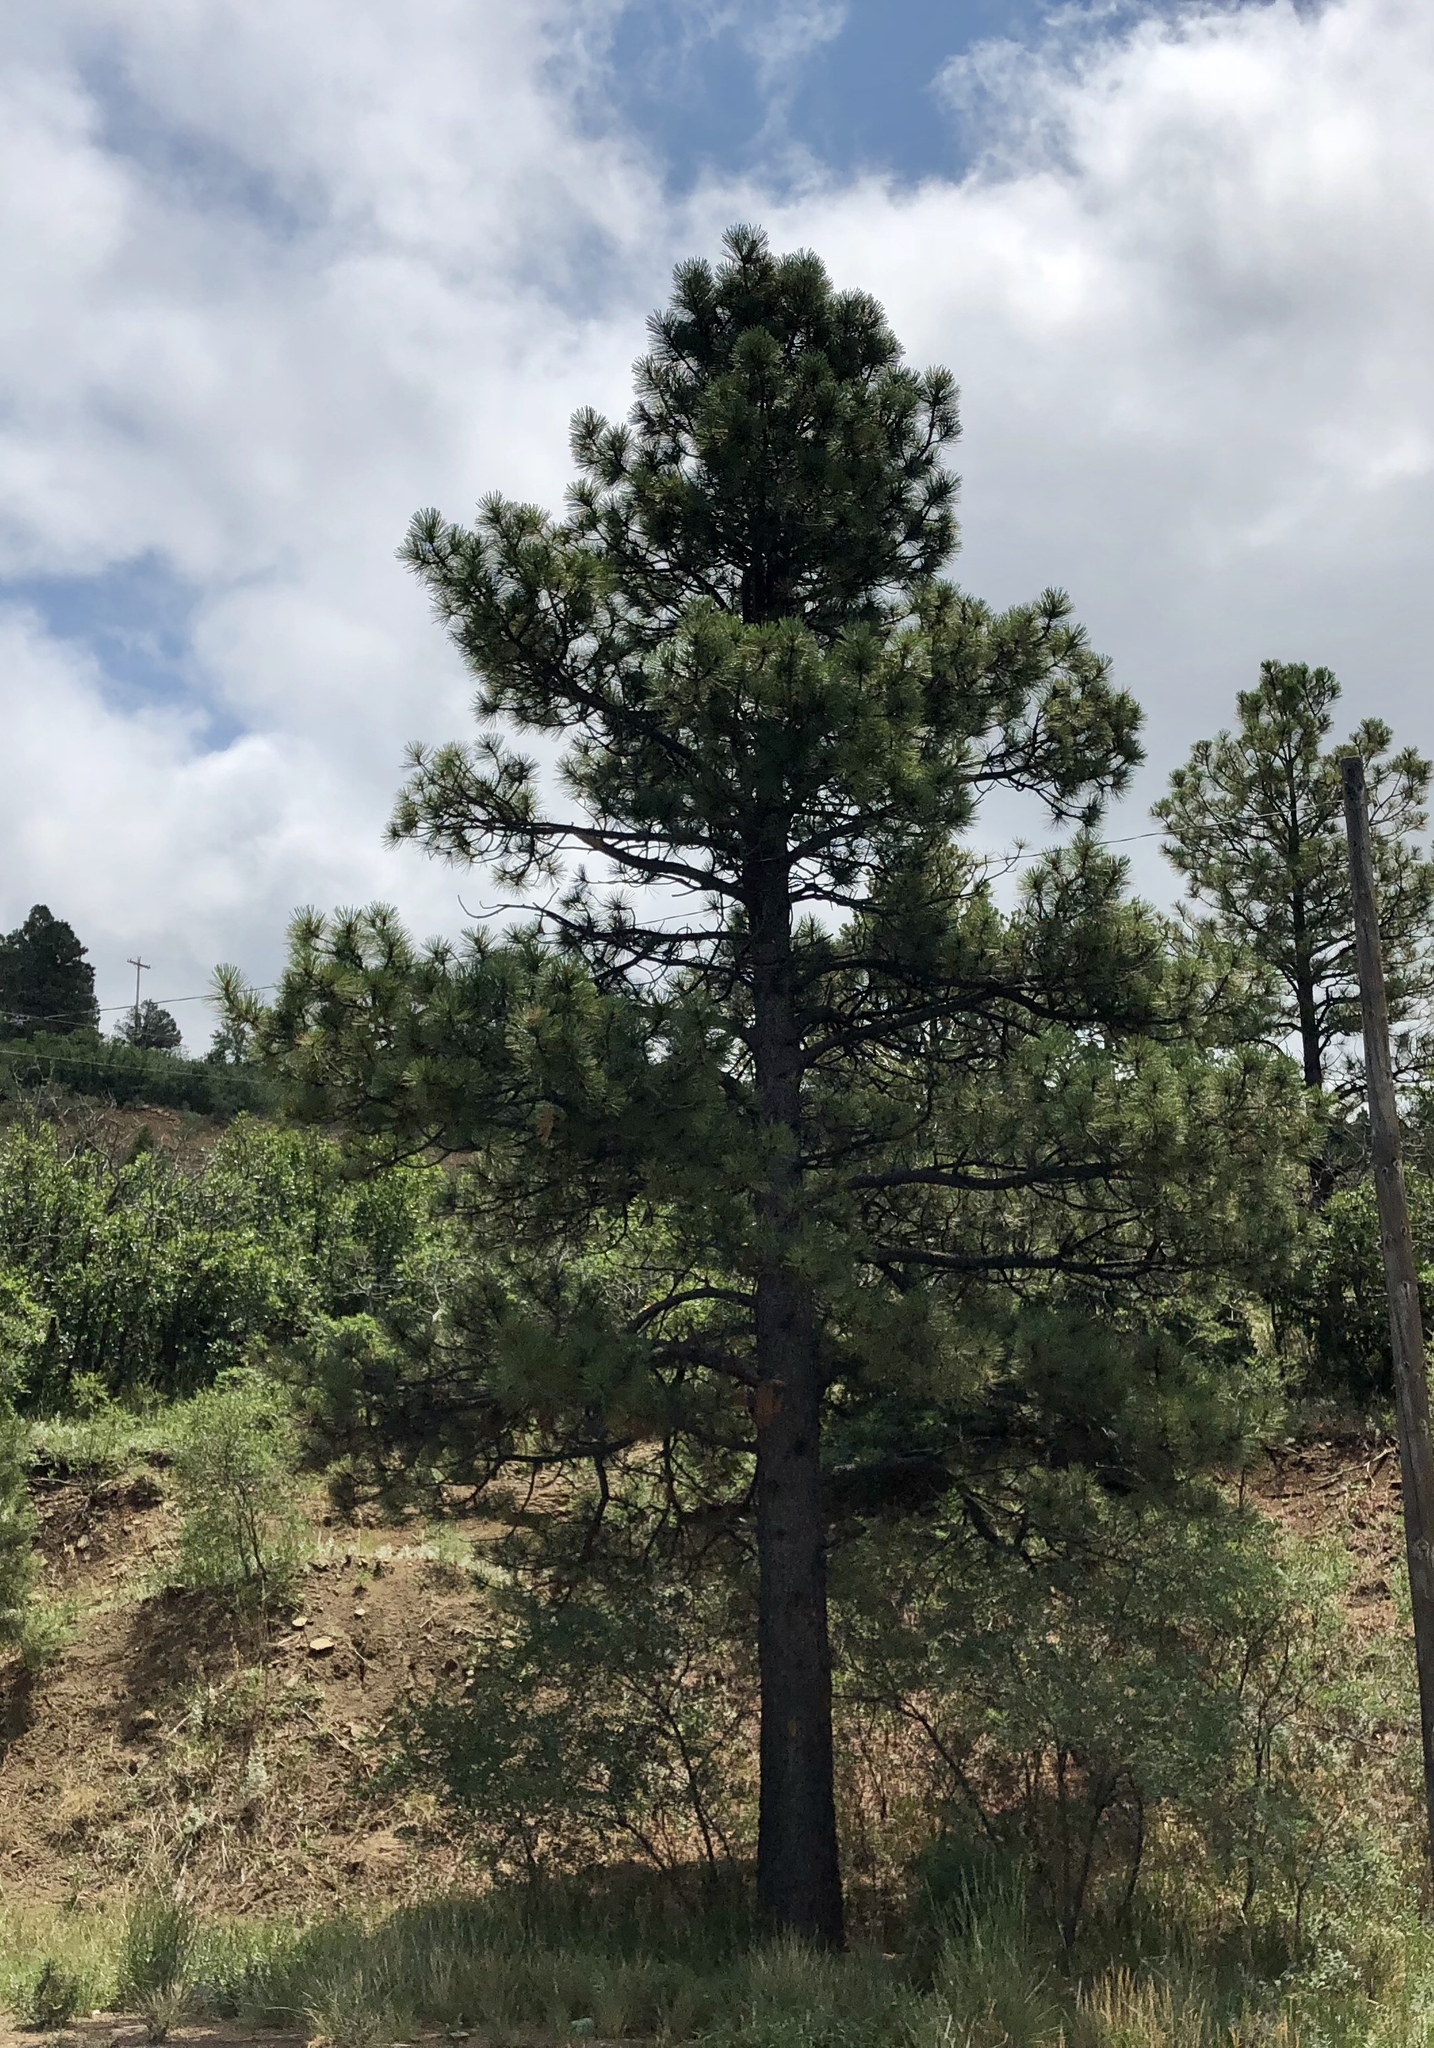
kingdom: Plantae
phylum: Tracheophyta
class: Pinopsida
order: Pinales
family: Pinaceae
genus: Pinus
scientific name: Pinus ponderosa
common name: Western yellow-pine
